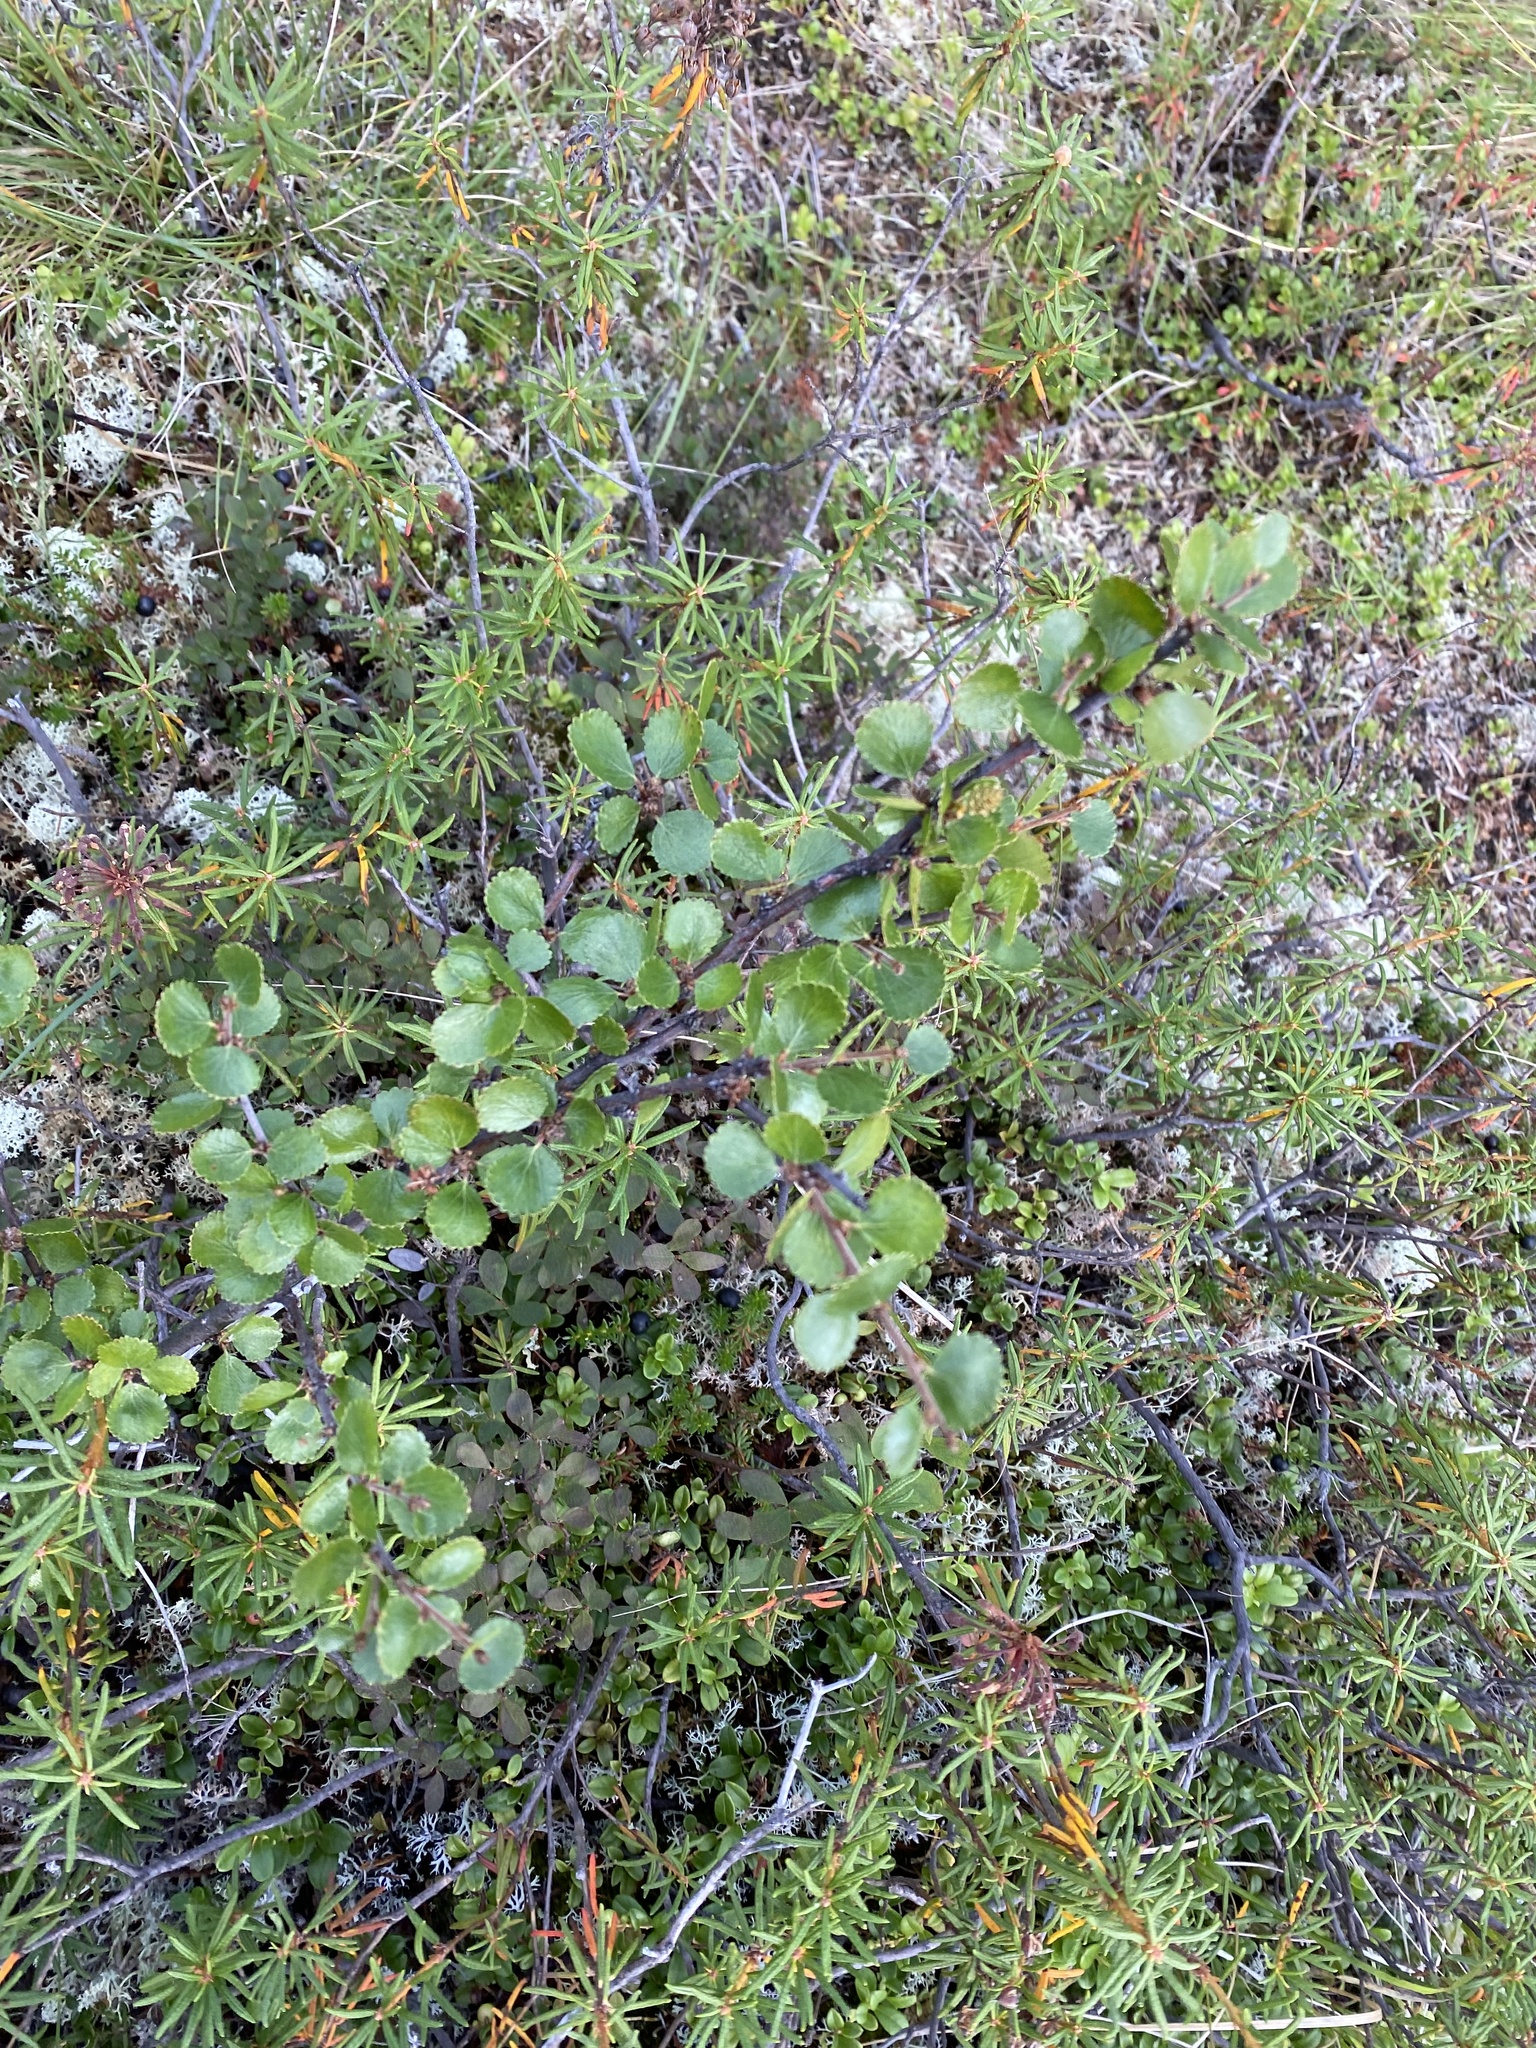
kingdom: Plantae
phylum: Tracheophyta
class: Magnoliopsida
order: Fagales
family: Betulaceae
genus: Betula
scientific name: Betula nana
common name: Arctic dwarf birch
